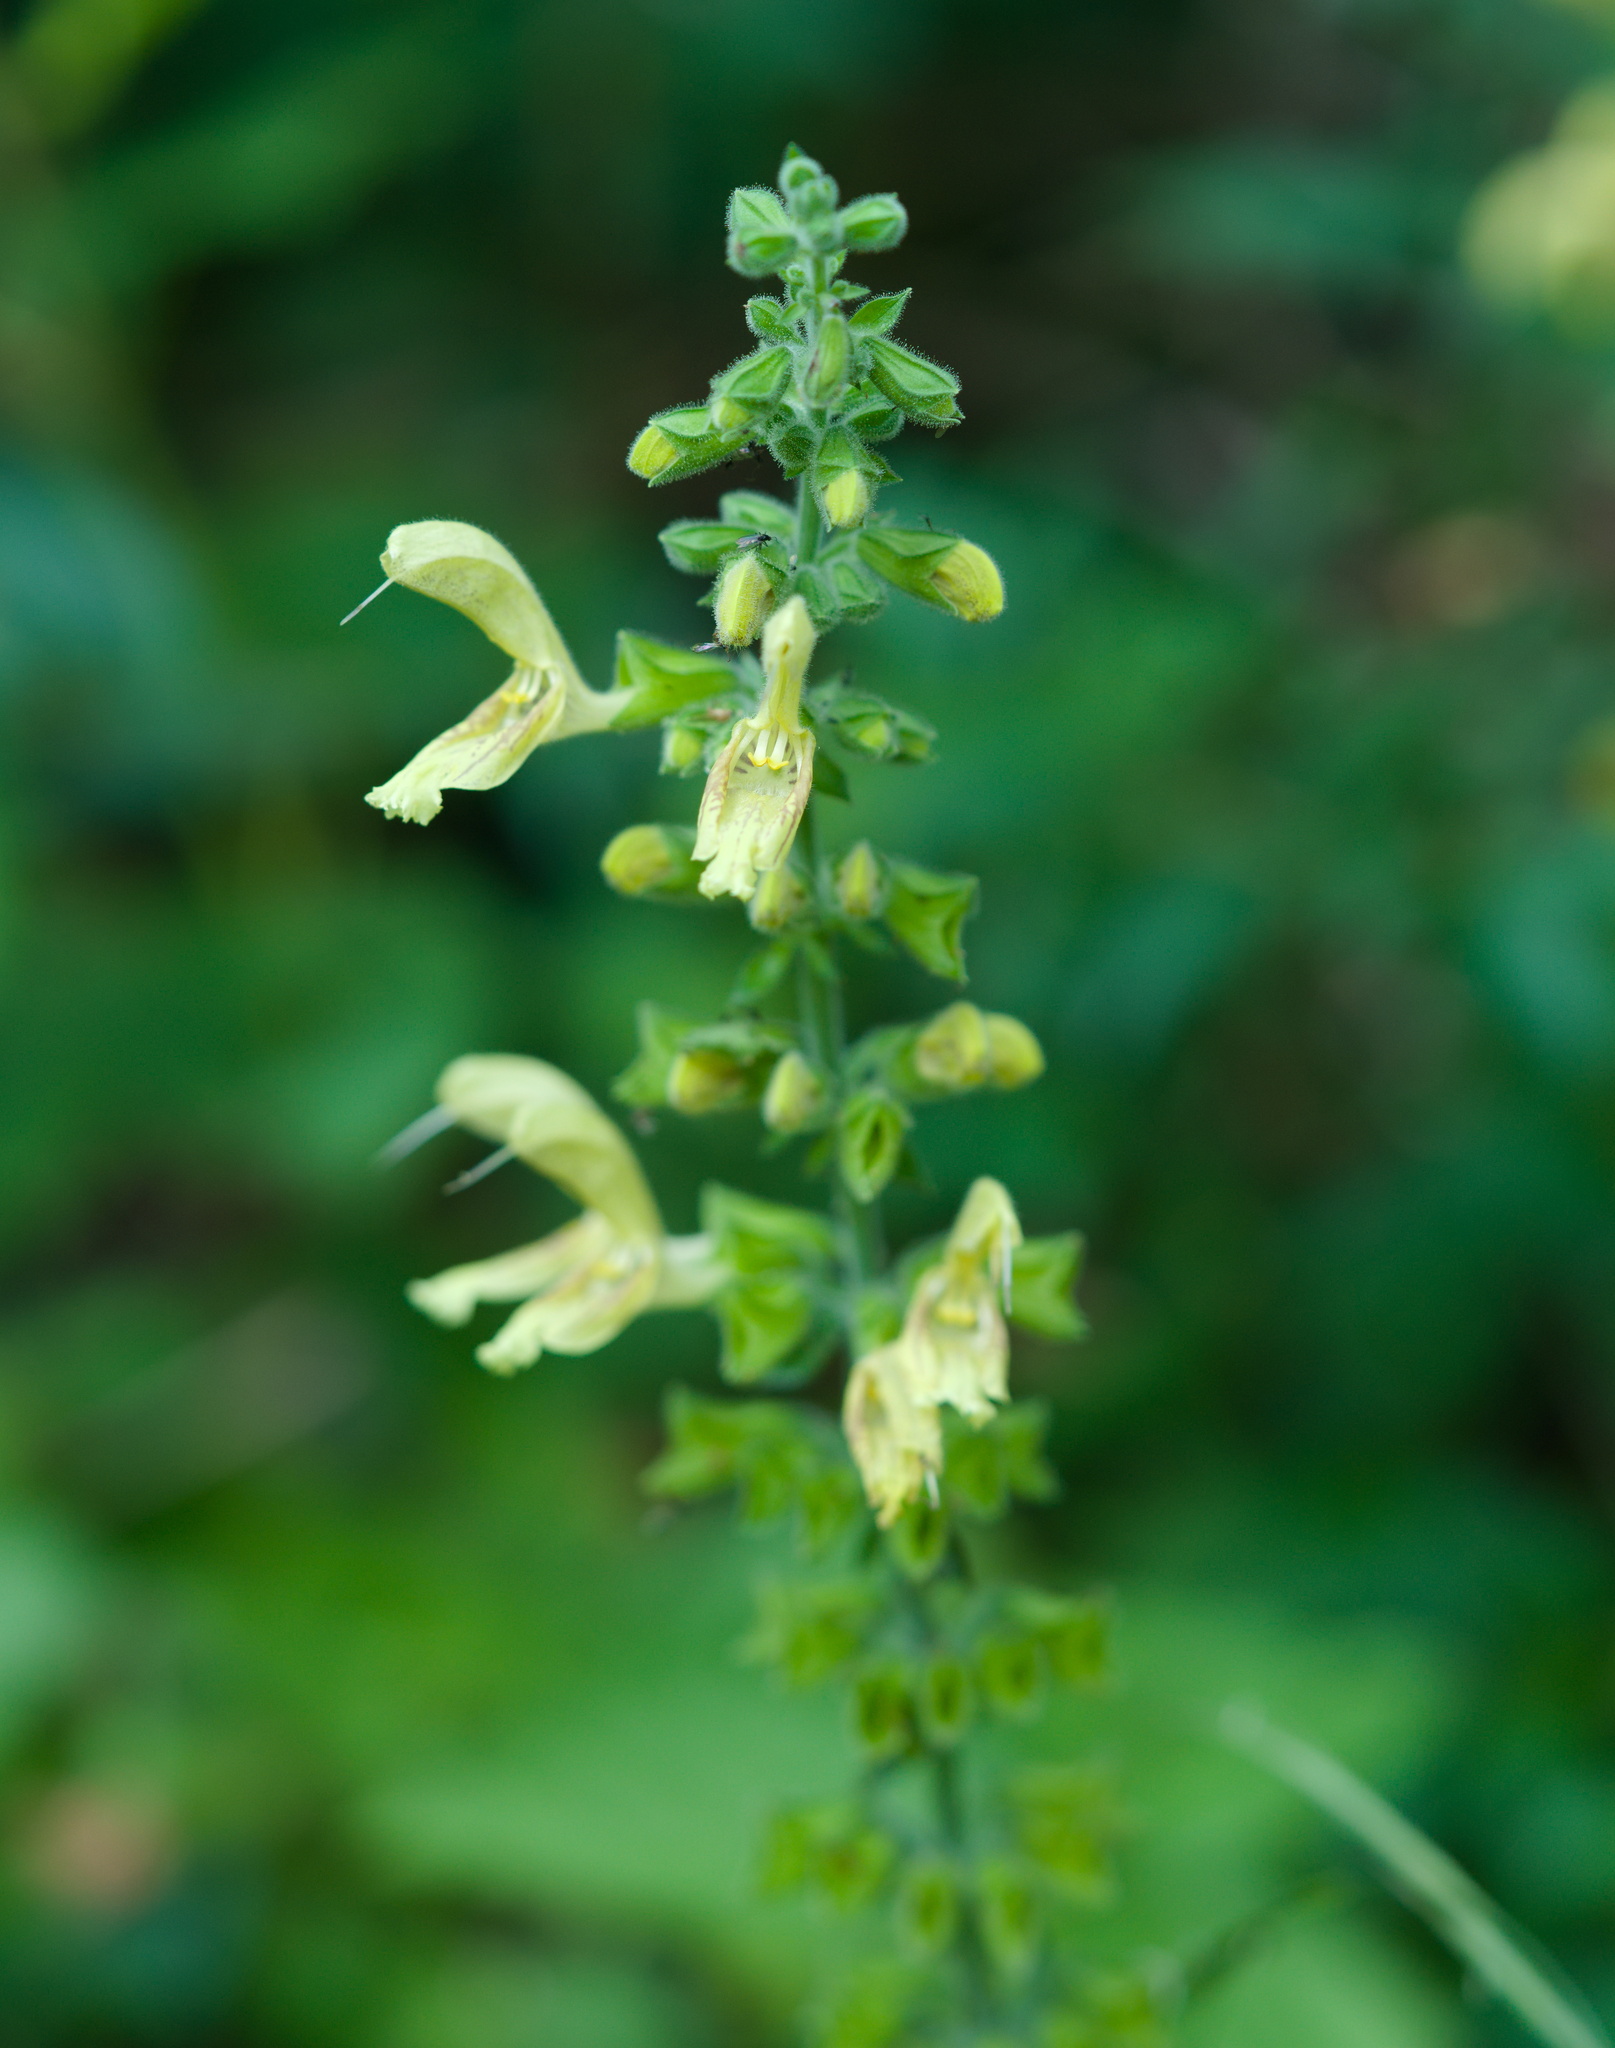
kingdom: Plantae
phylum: Tracheophyta
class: Magnoliopsida
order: Lamiales
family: Lamiaceae
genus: Salvia
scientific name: Salvia glutinosa
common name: Sticky clary
